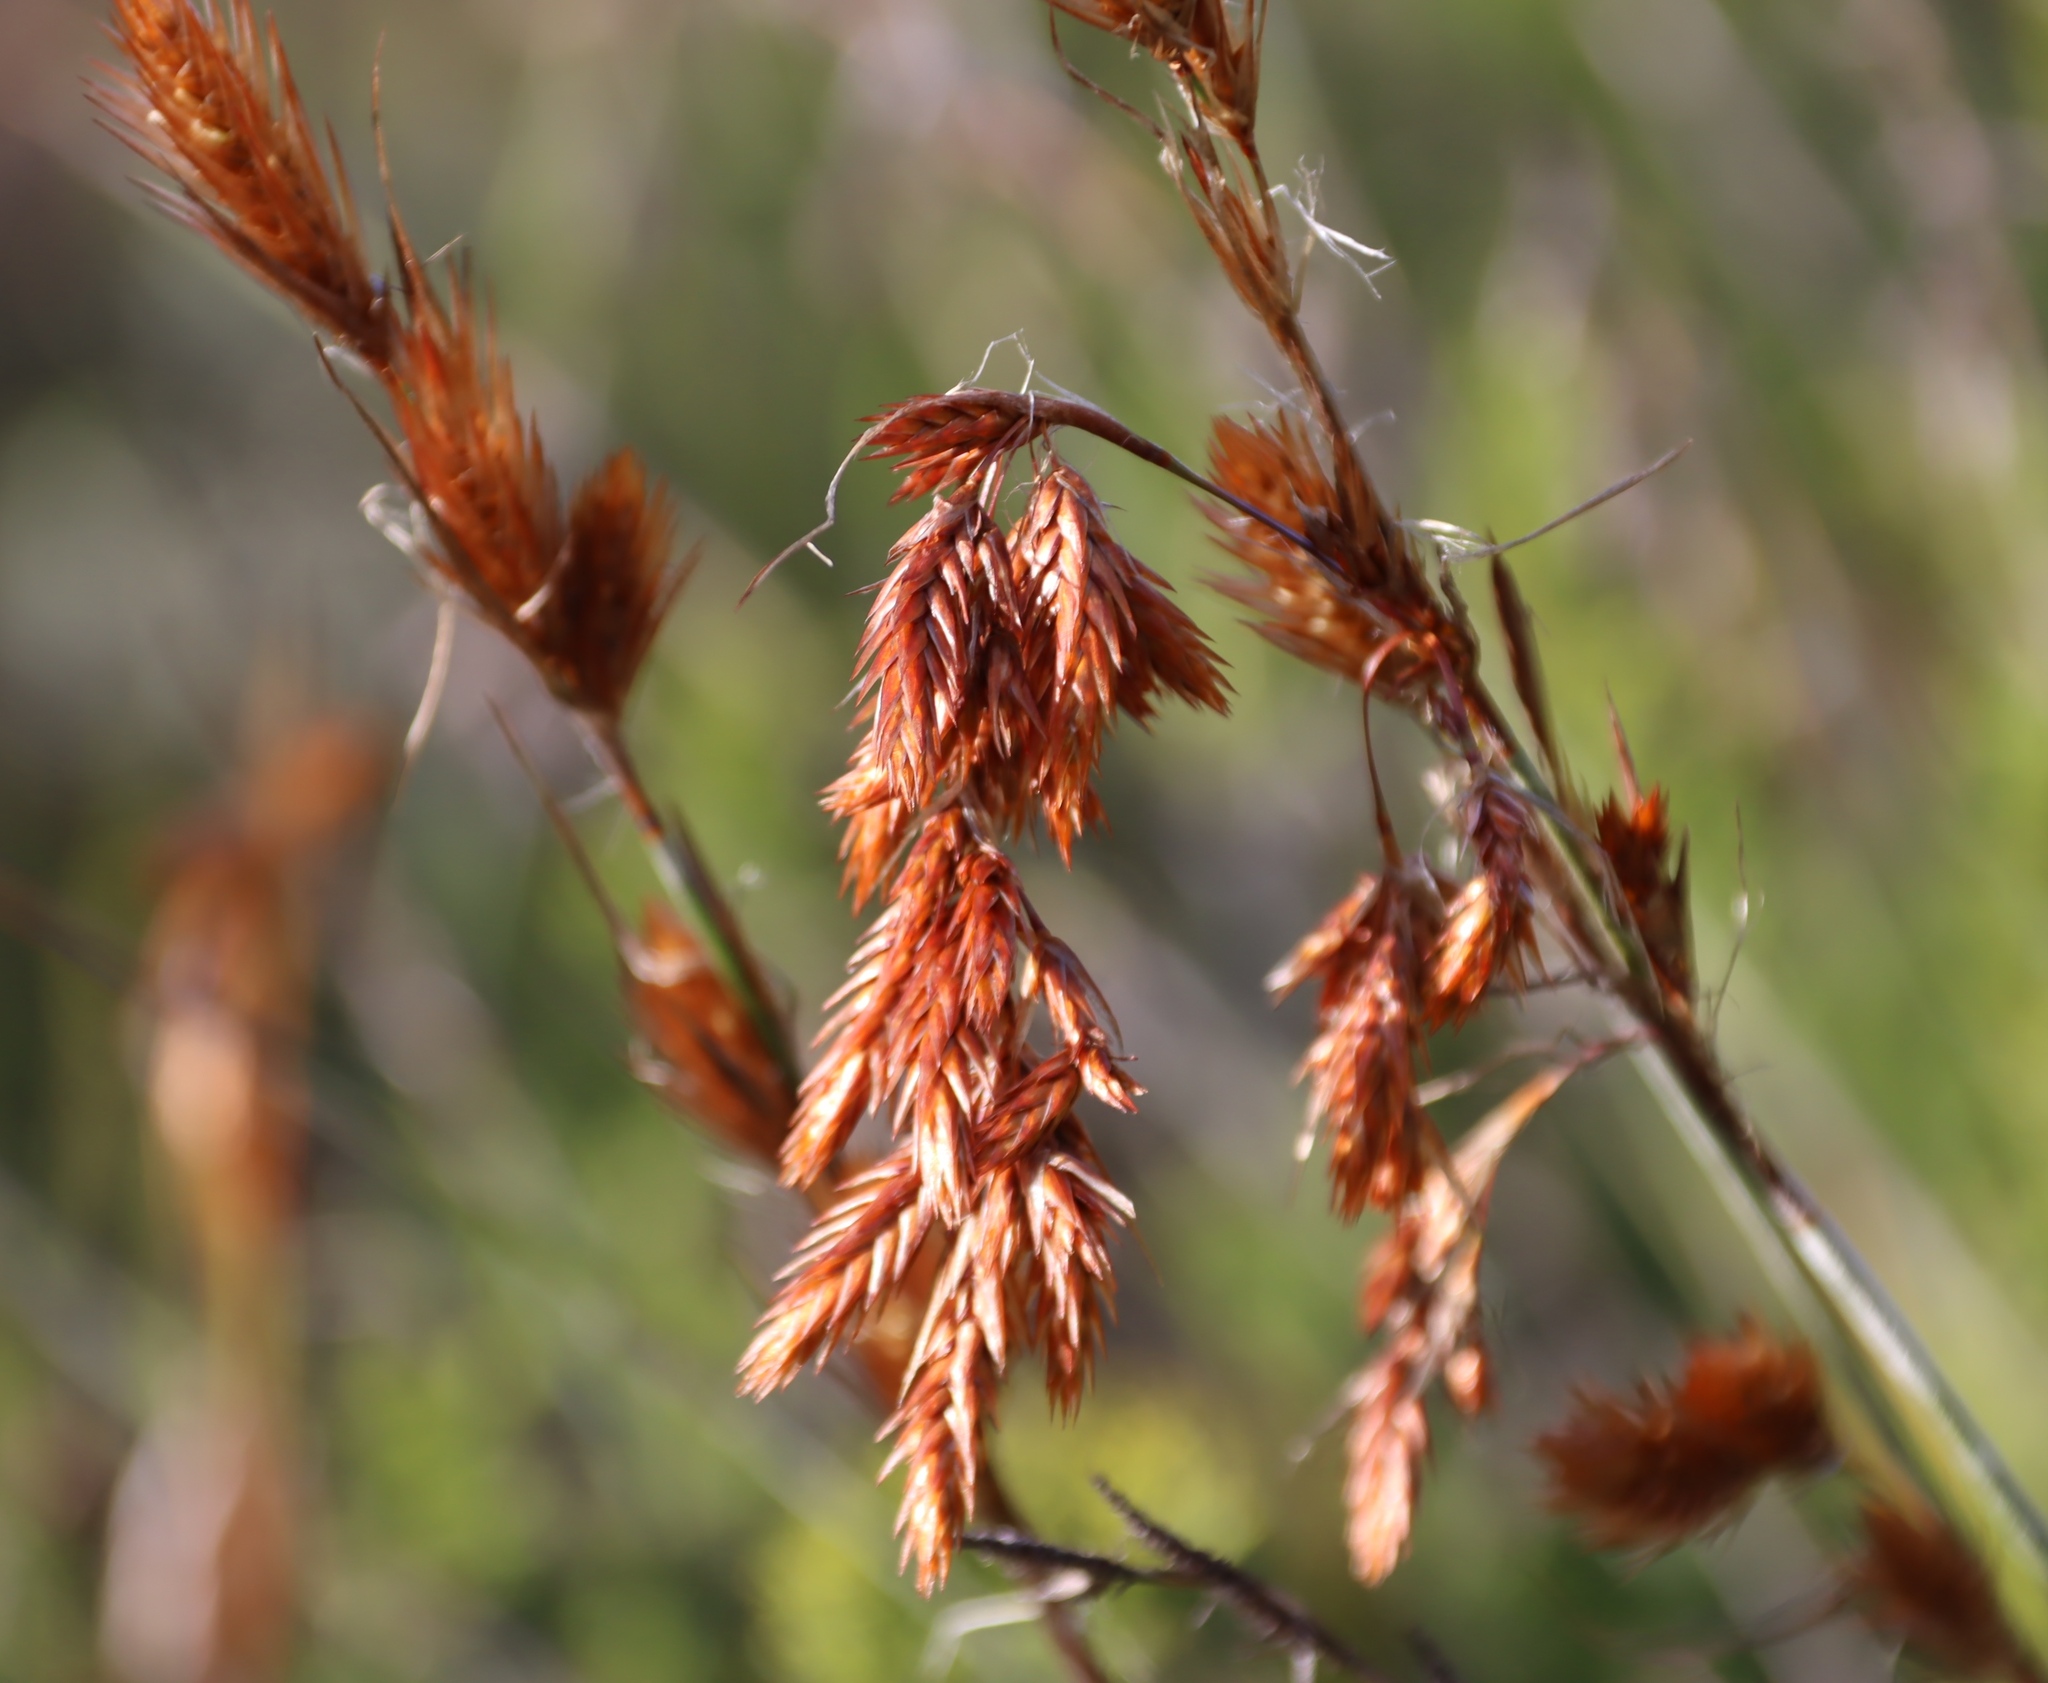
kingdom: Plantae
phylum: Tracheophyta
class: Liliopsida
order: Poales
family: Restionaceae
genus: Thamnochortus
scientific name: Thamnochortus rigidus
